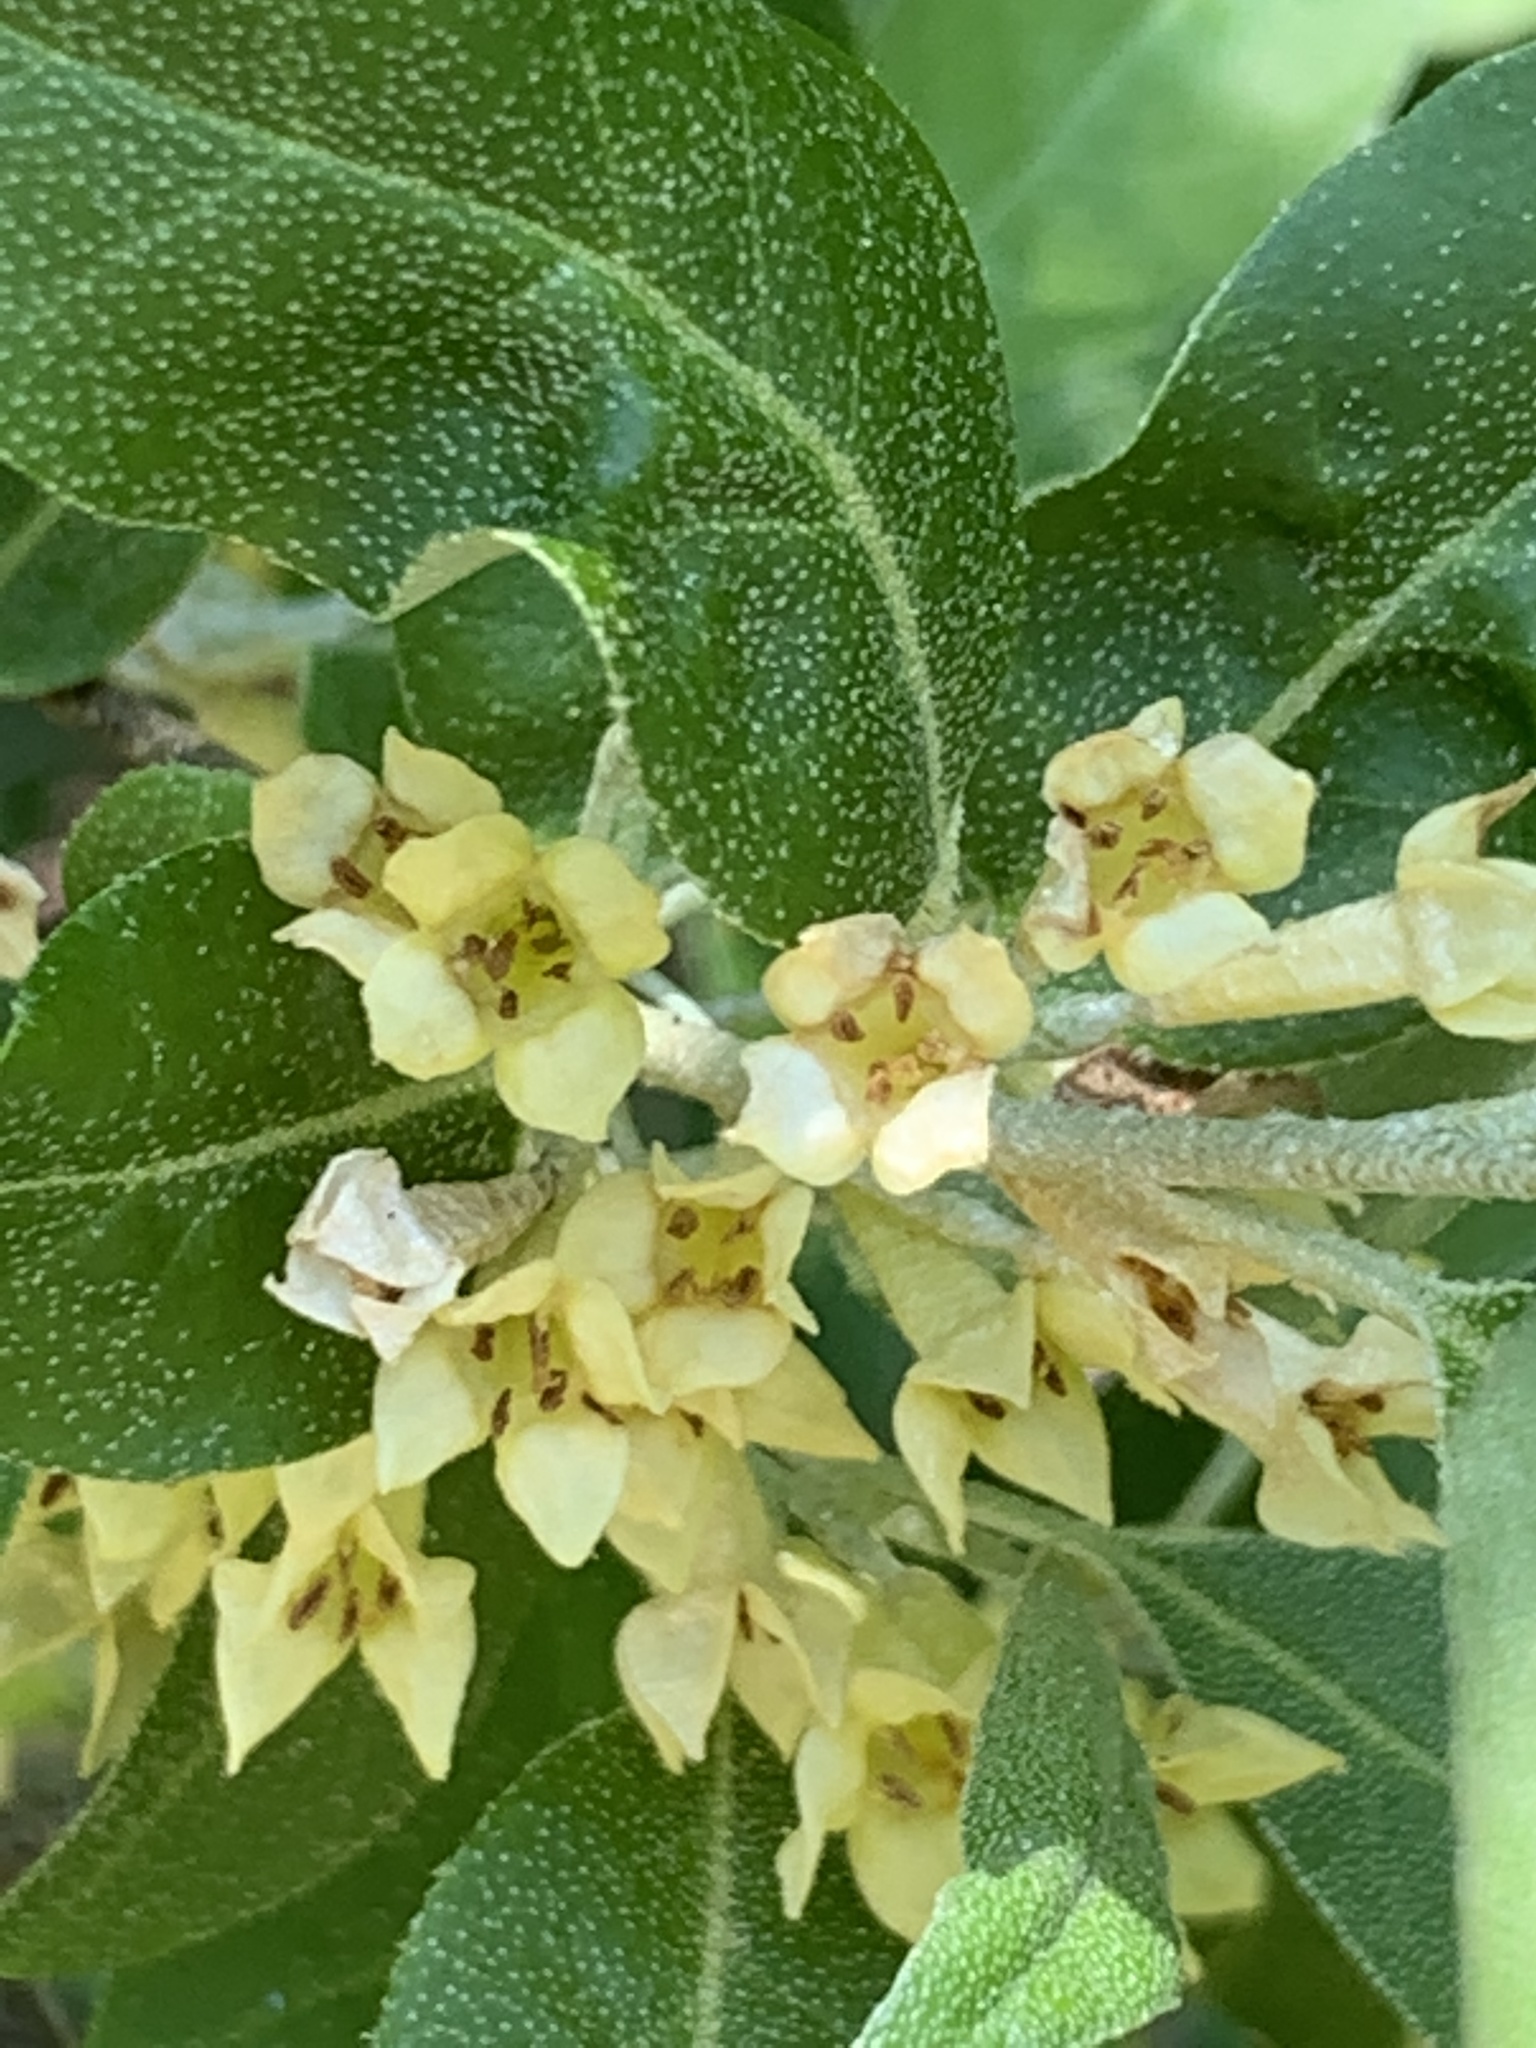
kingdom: Plantae
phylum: Tracheophyta
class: Magnoliopsida
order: Rosales
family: Elaeagnaceae
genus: Elaeagnus
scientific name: Elaeagnus umbellata
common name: Autumn olive
